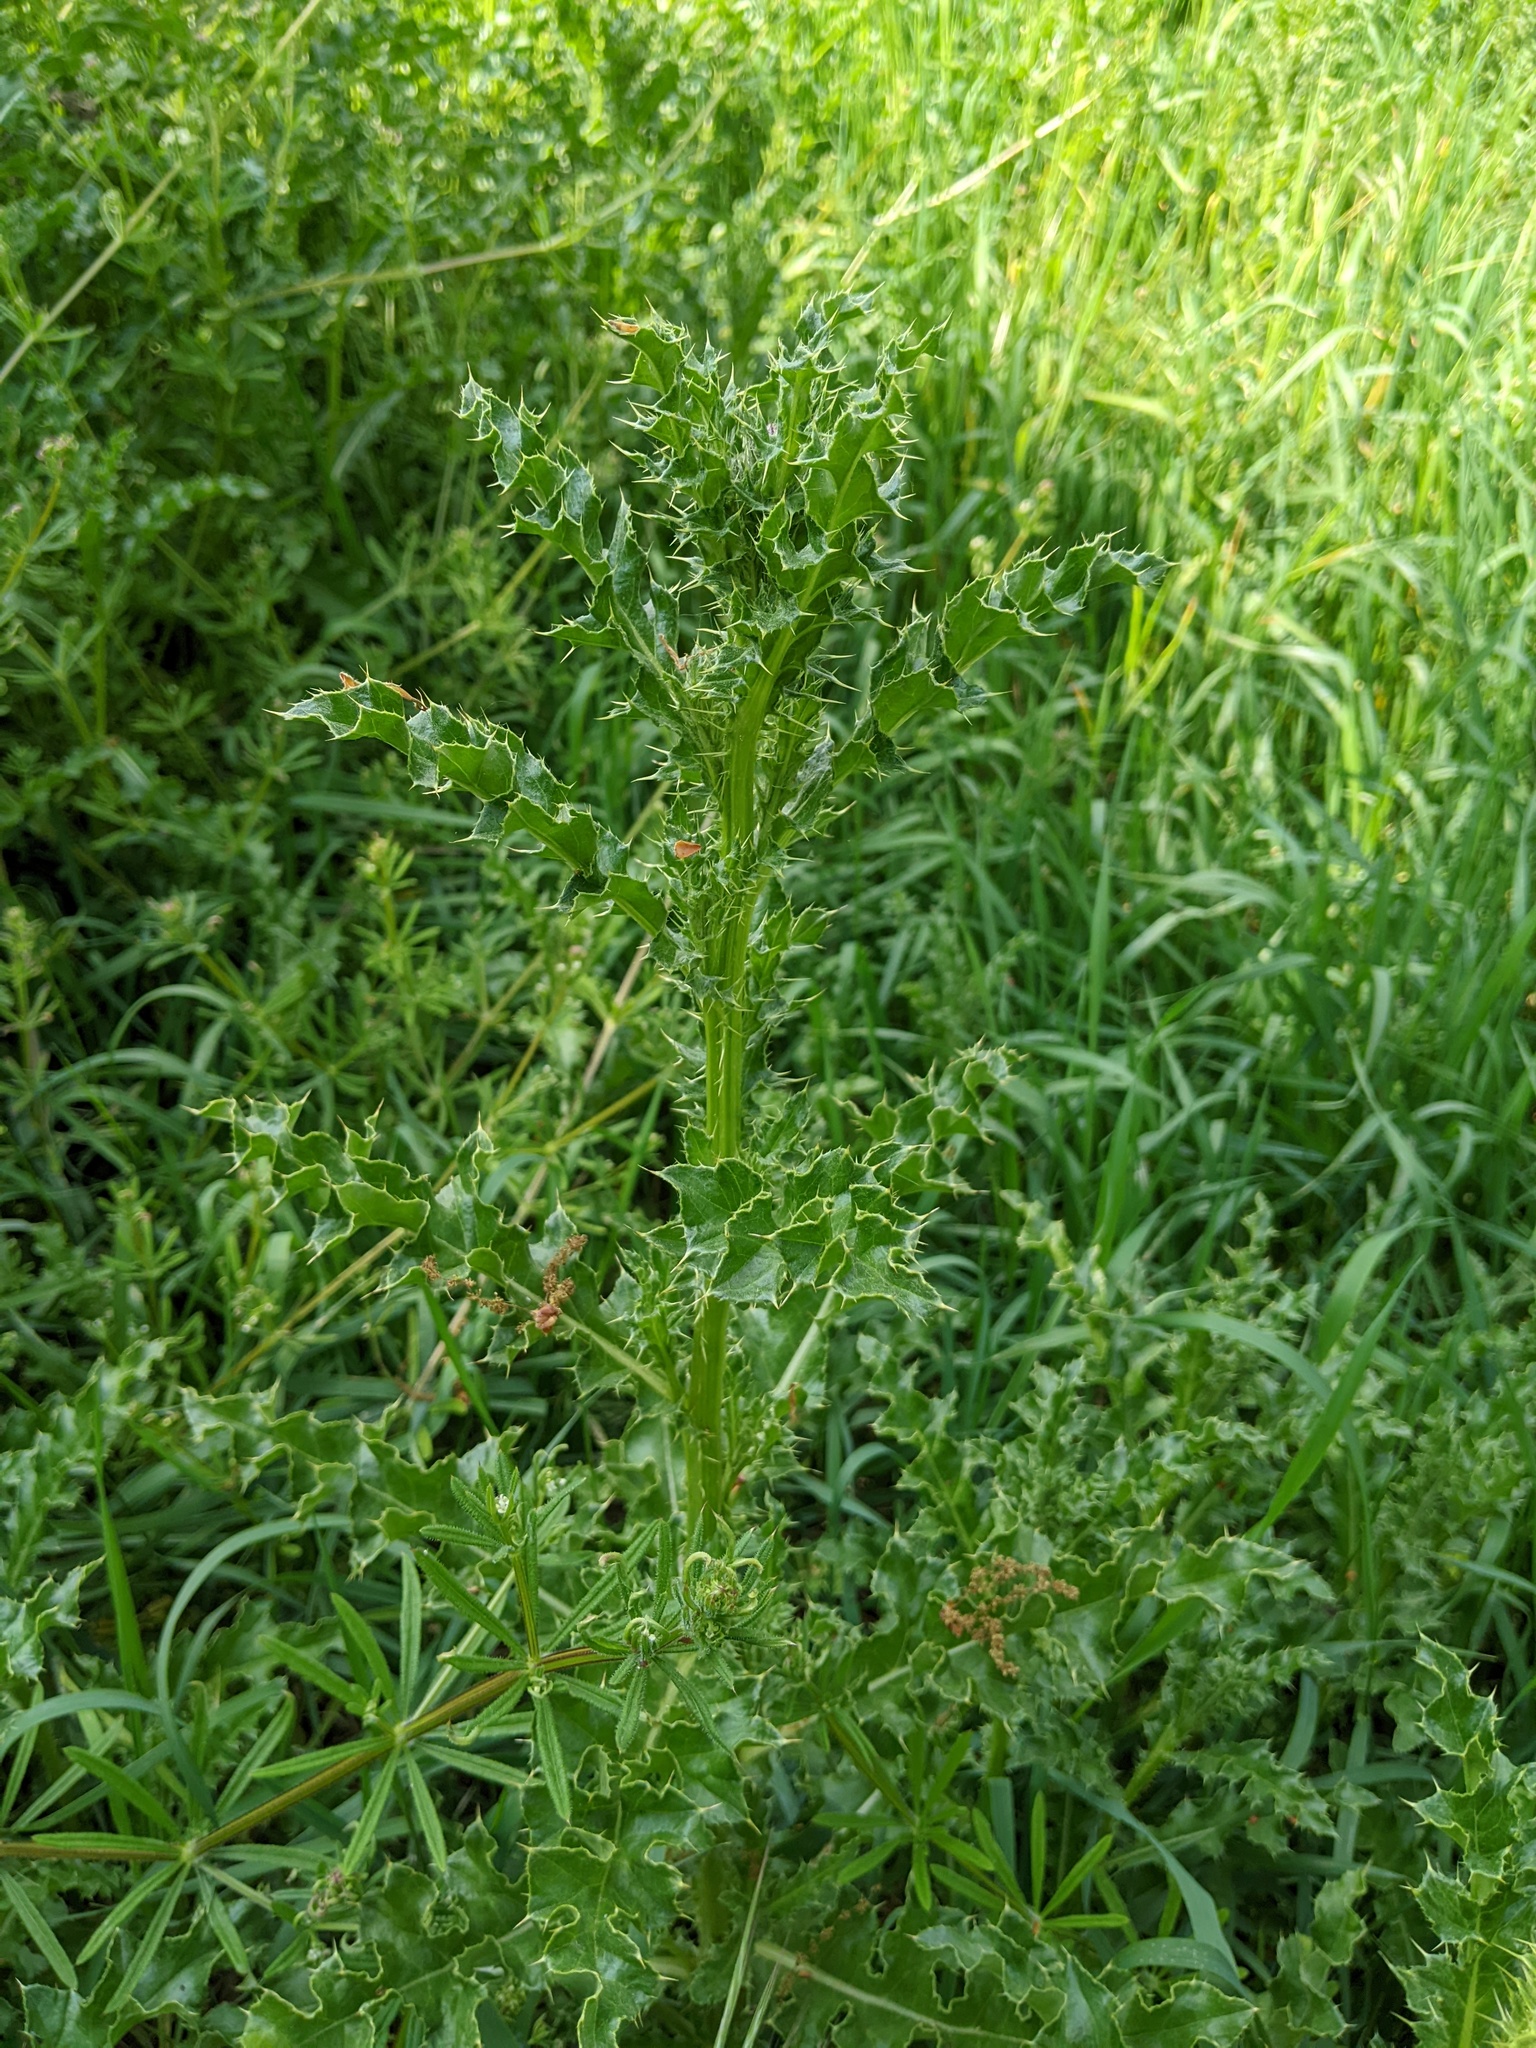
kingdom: Plantae
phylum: Tracheophyta
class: Magnoliopsida
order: Asterales
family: Asteraceae
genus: Cirsium
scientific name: Cirsium arvense
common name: Creeping thistle
